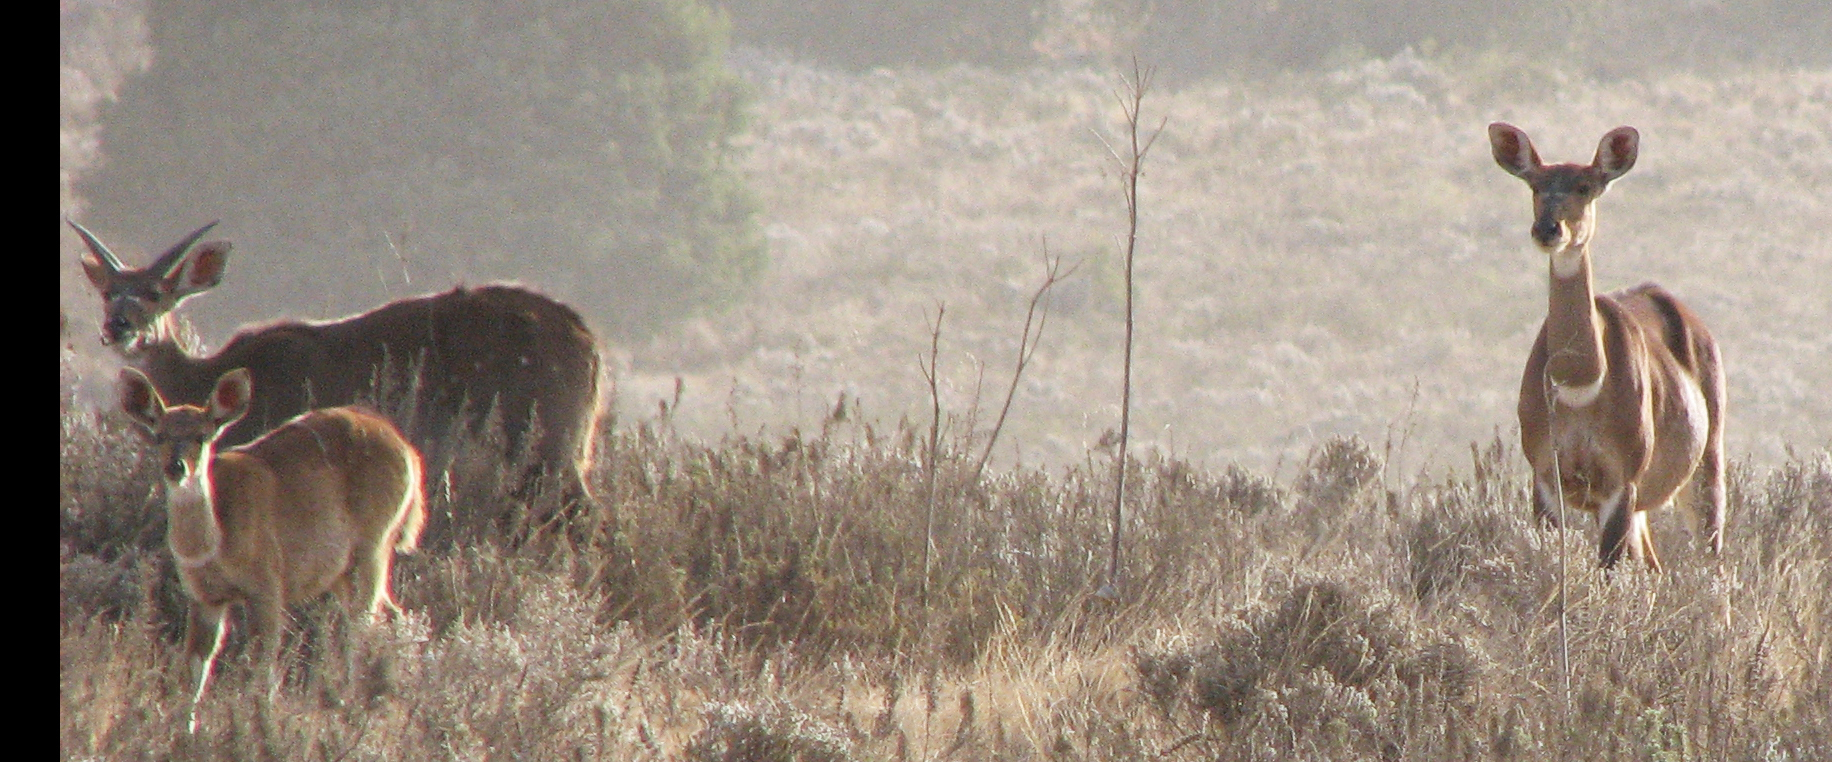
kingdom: Animalia
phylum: Chordata
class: Mammalia
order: Artiodactyla
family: Bovidae
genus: Tragelaphus
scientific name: Tragelaphus buxtoni
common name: Mountain nyala
